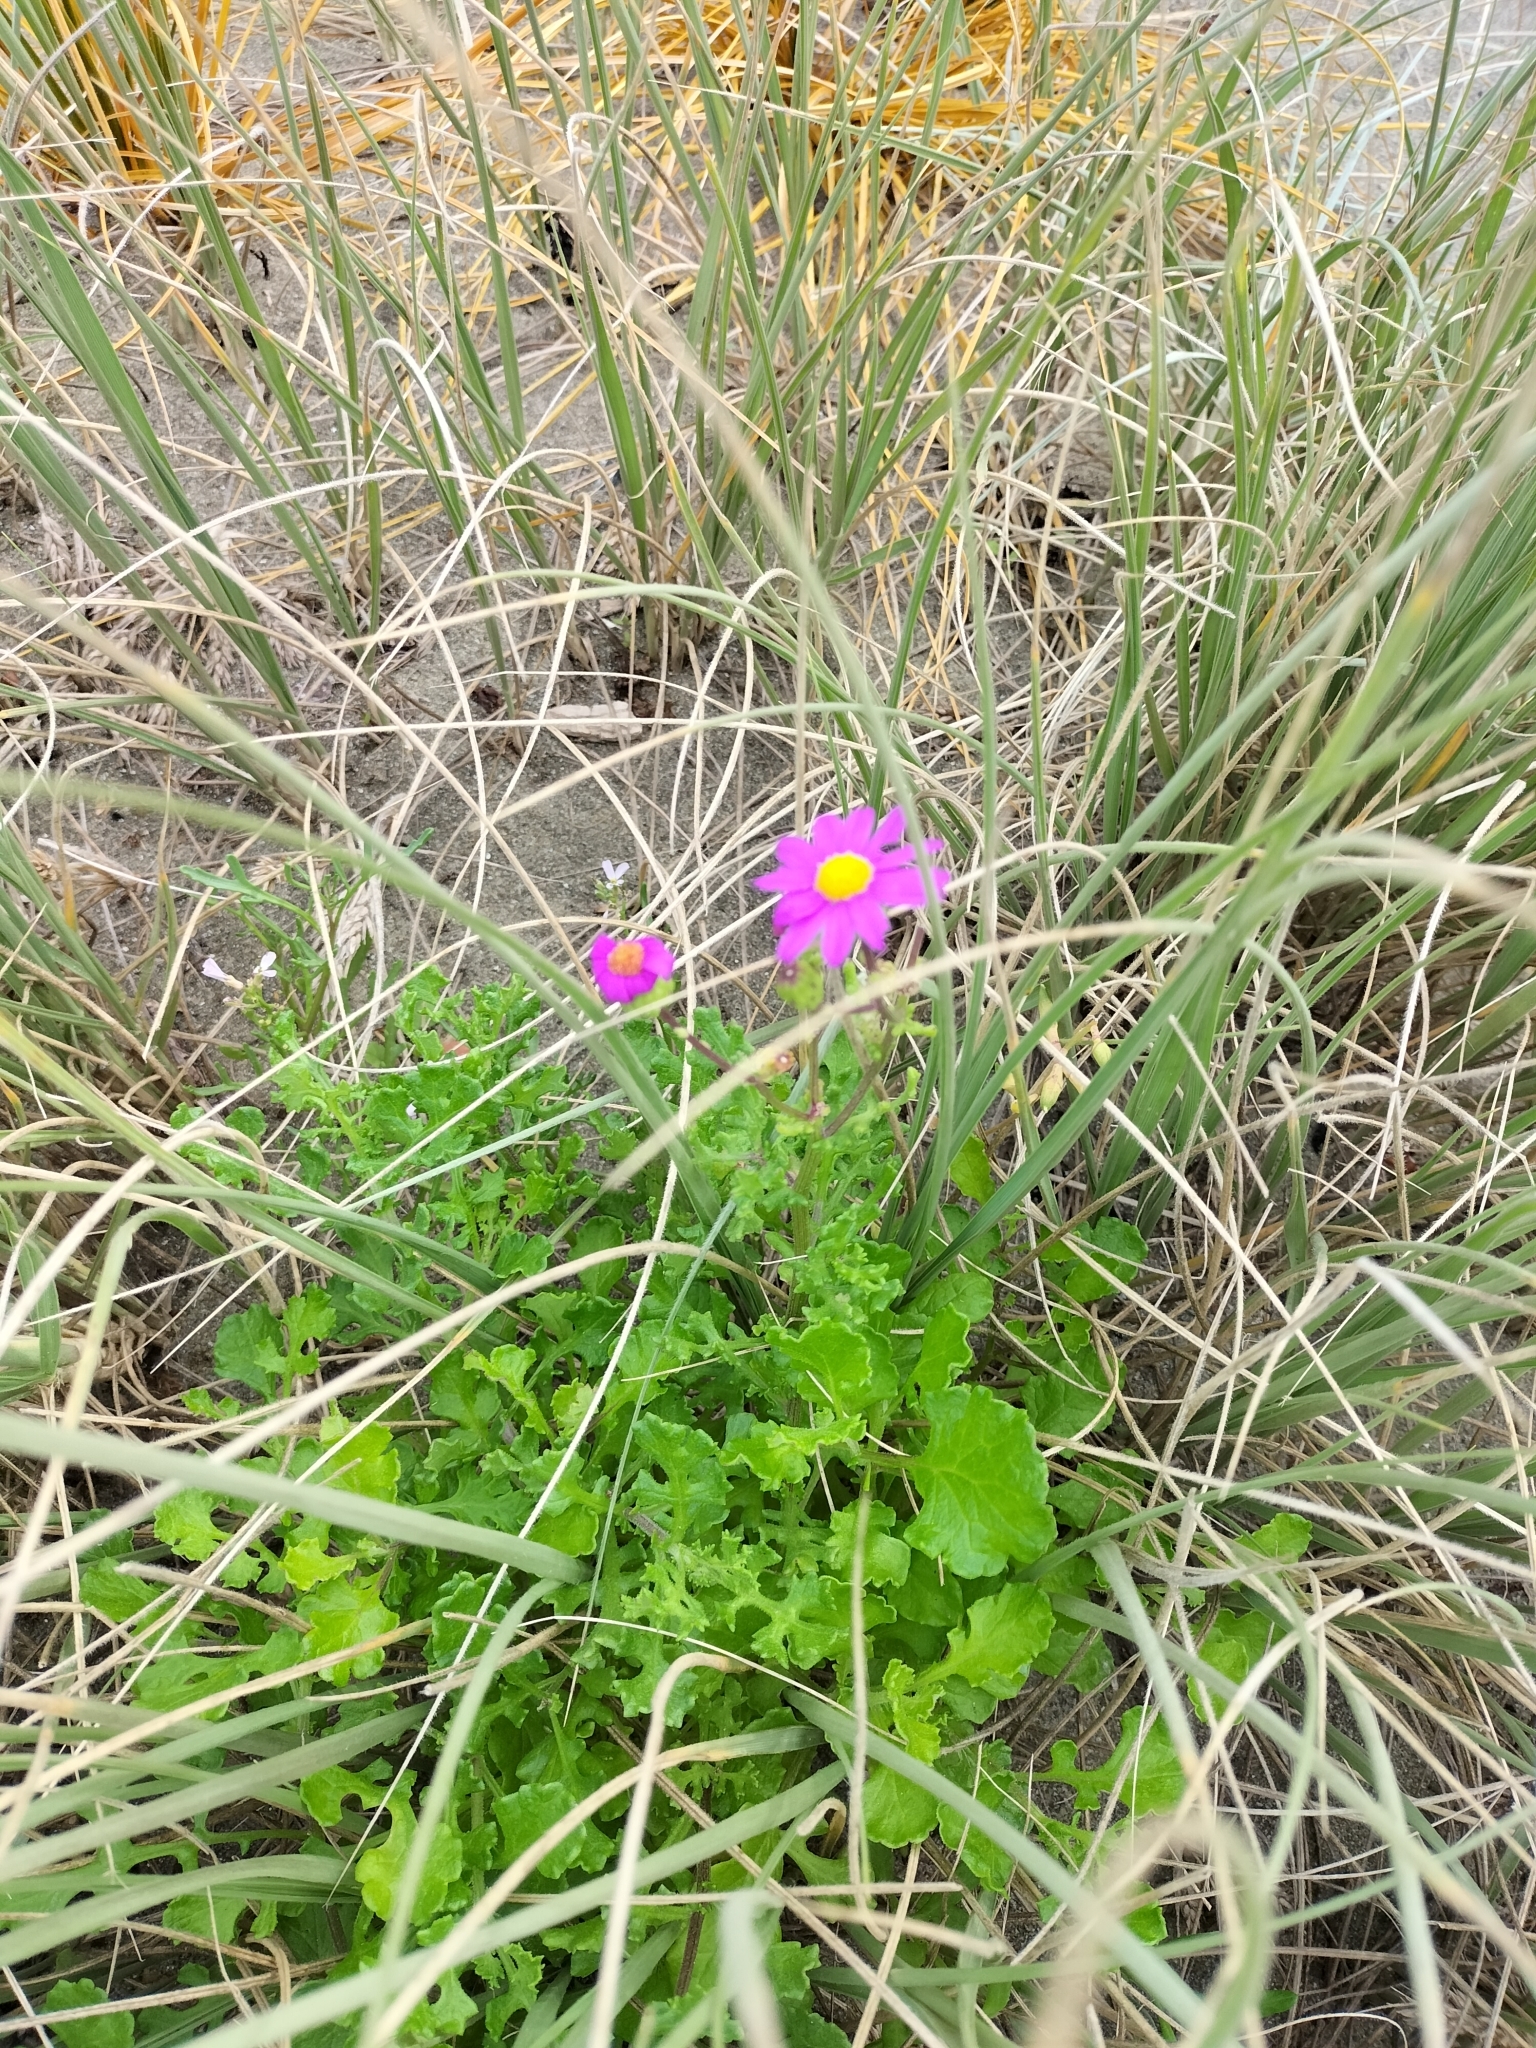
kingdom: Plantae
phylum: Tracheophyta
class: Magnoliopsida
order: Asterales
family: Asteraceae
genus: Senecio
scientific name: Senecio elegans
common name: Purple groundsel
